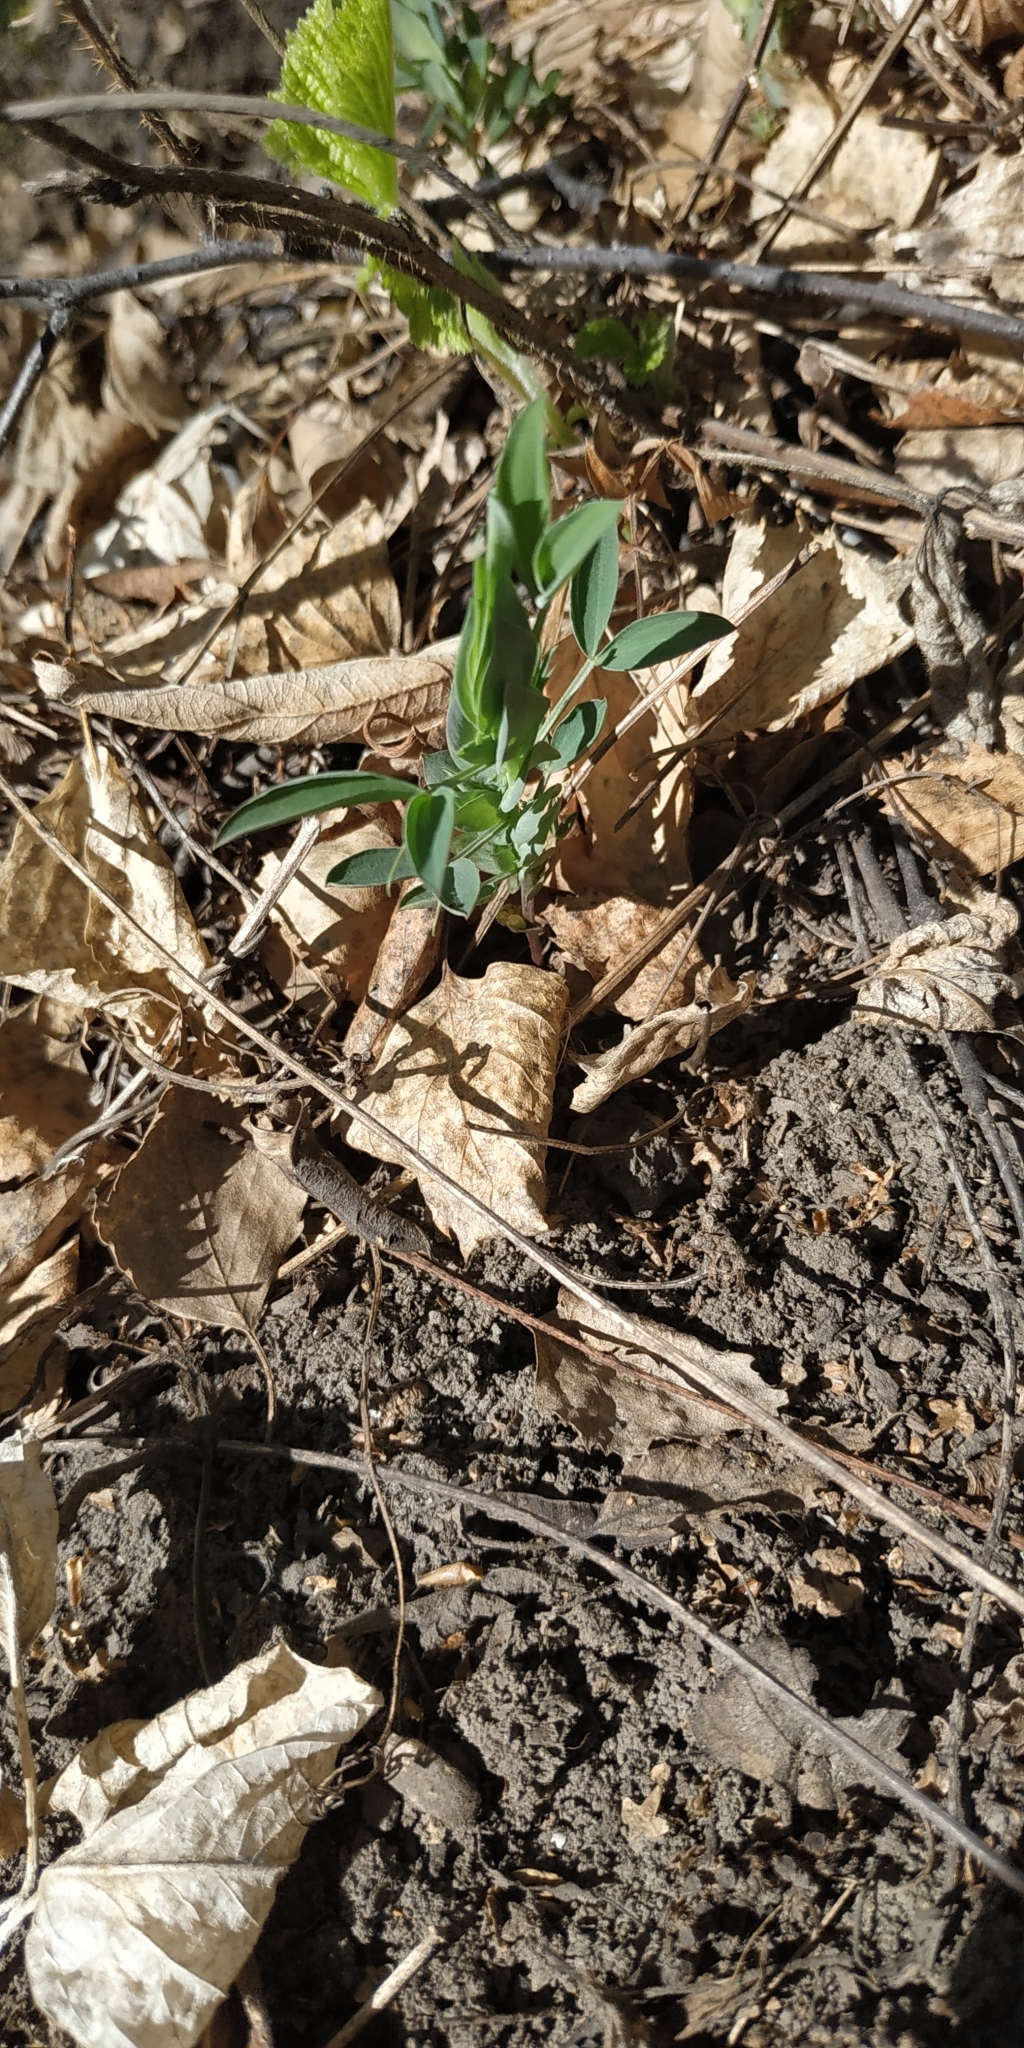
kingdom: Plantae
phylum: Tracheophyta
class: Magnoliopsida
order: Fabales
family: Fabaceae
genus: Lathyrus
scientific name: Lathyrus pratensis
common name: Meadow vetchling
